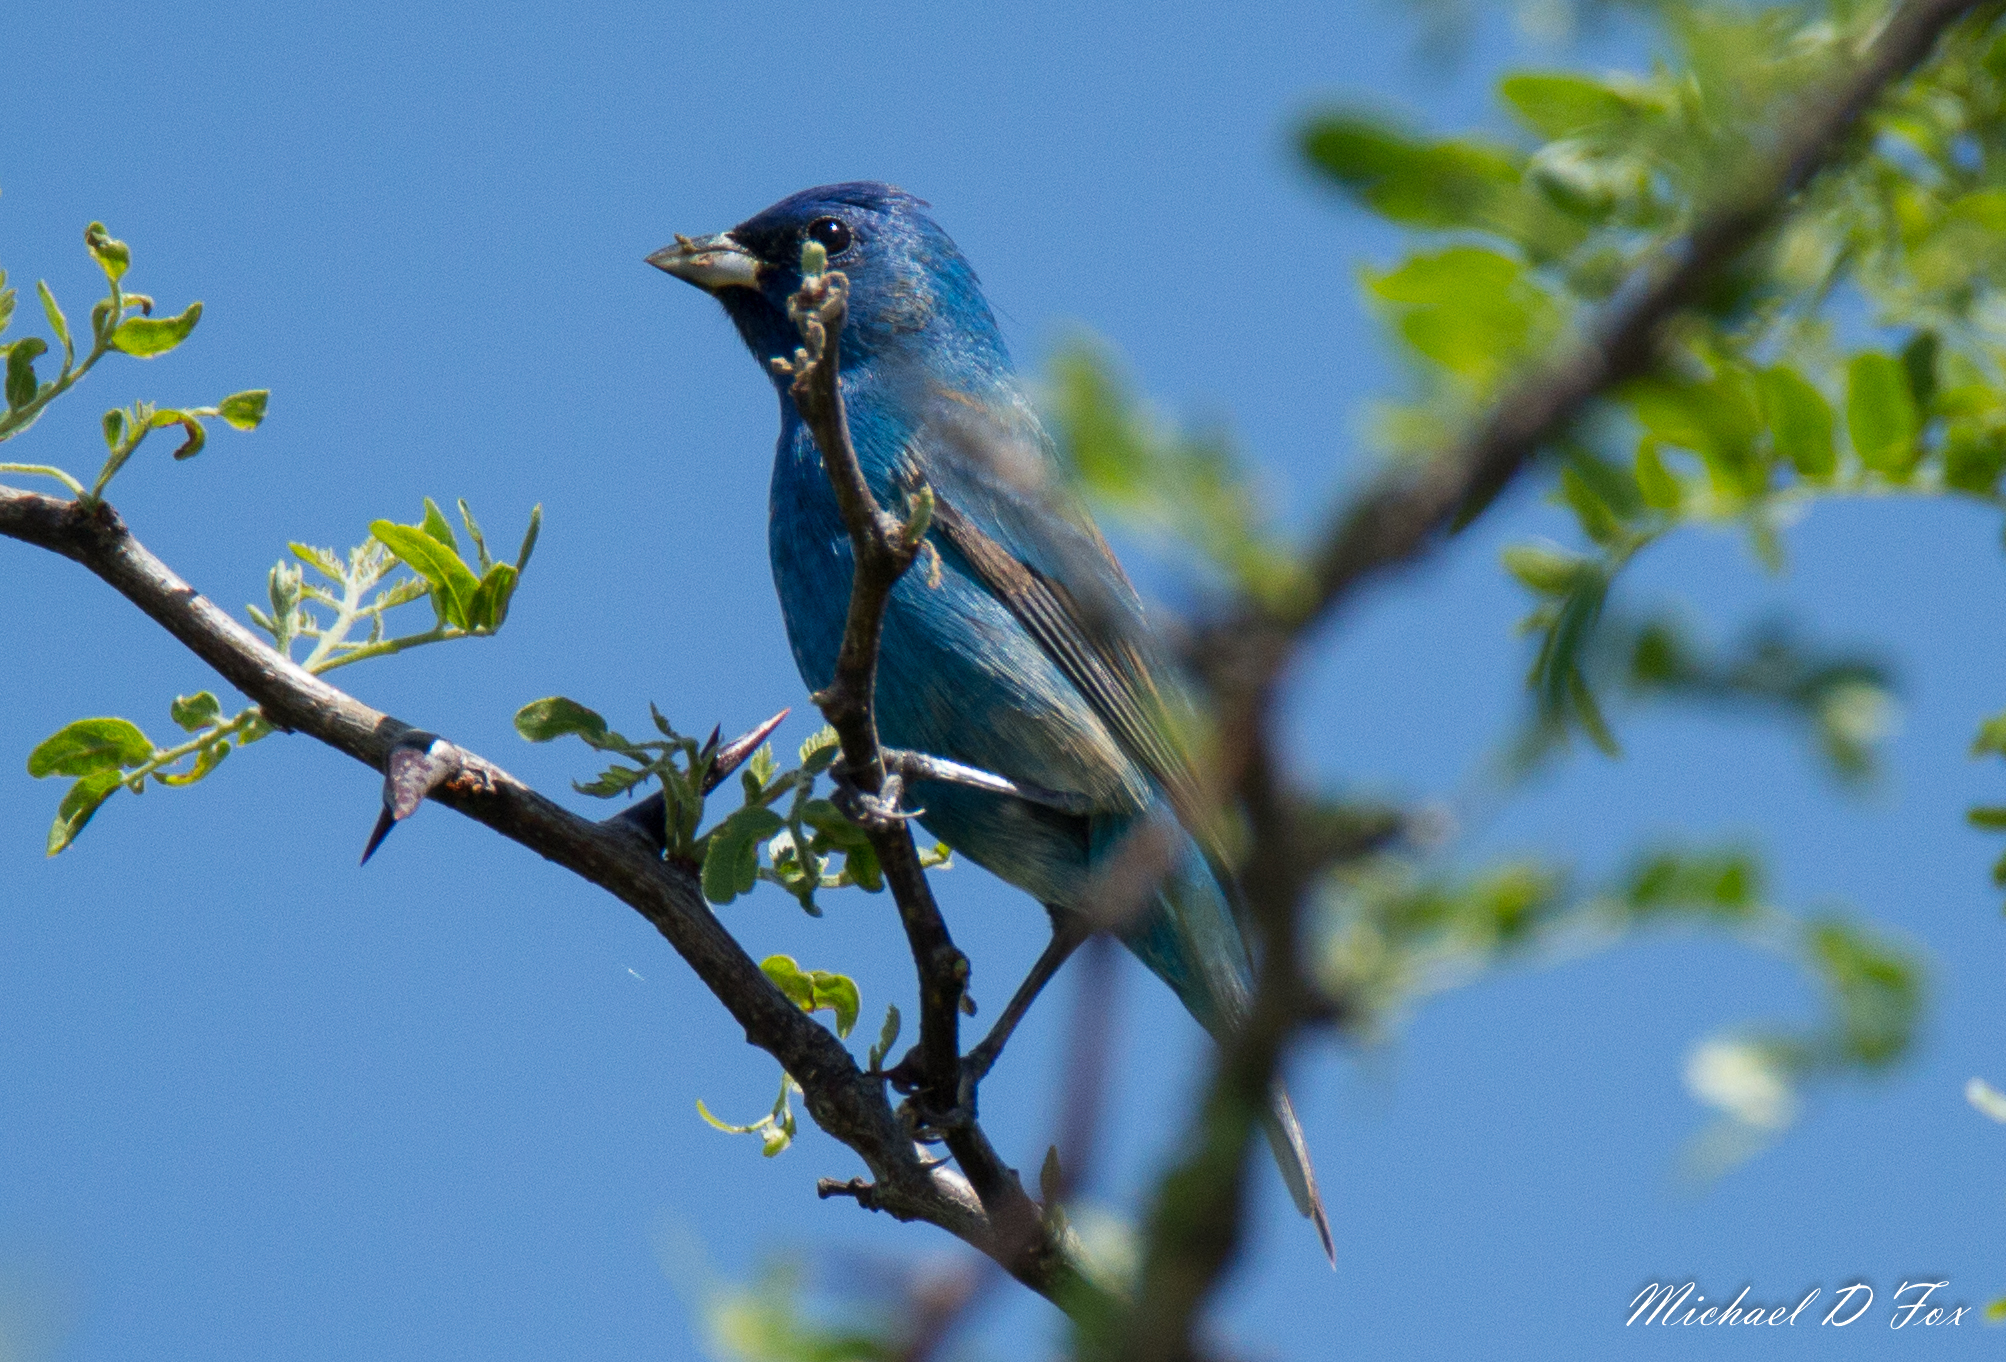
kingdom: Animalia
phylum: Chordata
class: Aves
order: Passeriformes
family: Cardinalidae
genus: Passerina
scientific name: Passerina cyanea
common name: Indigo bunting
